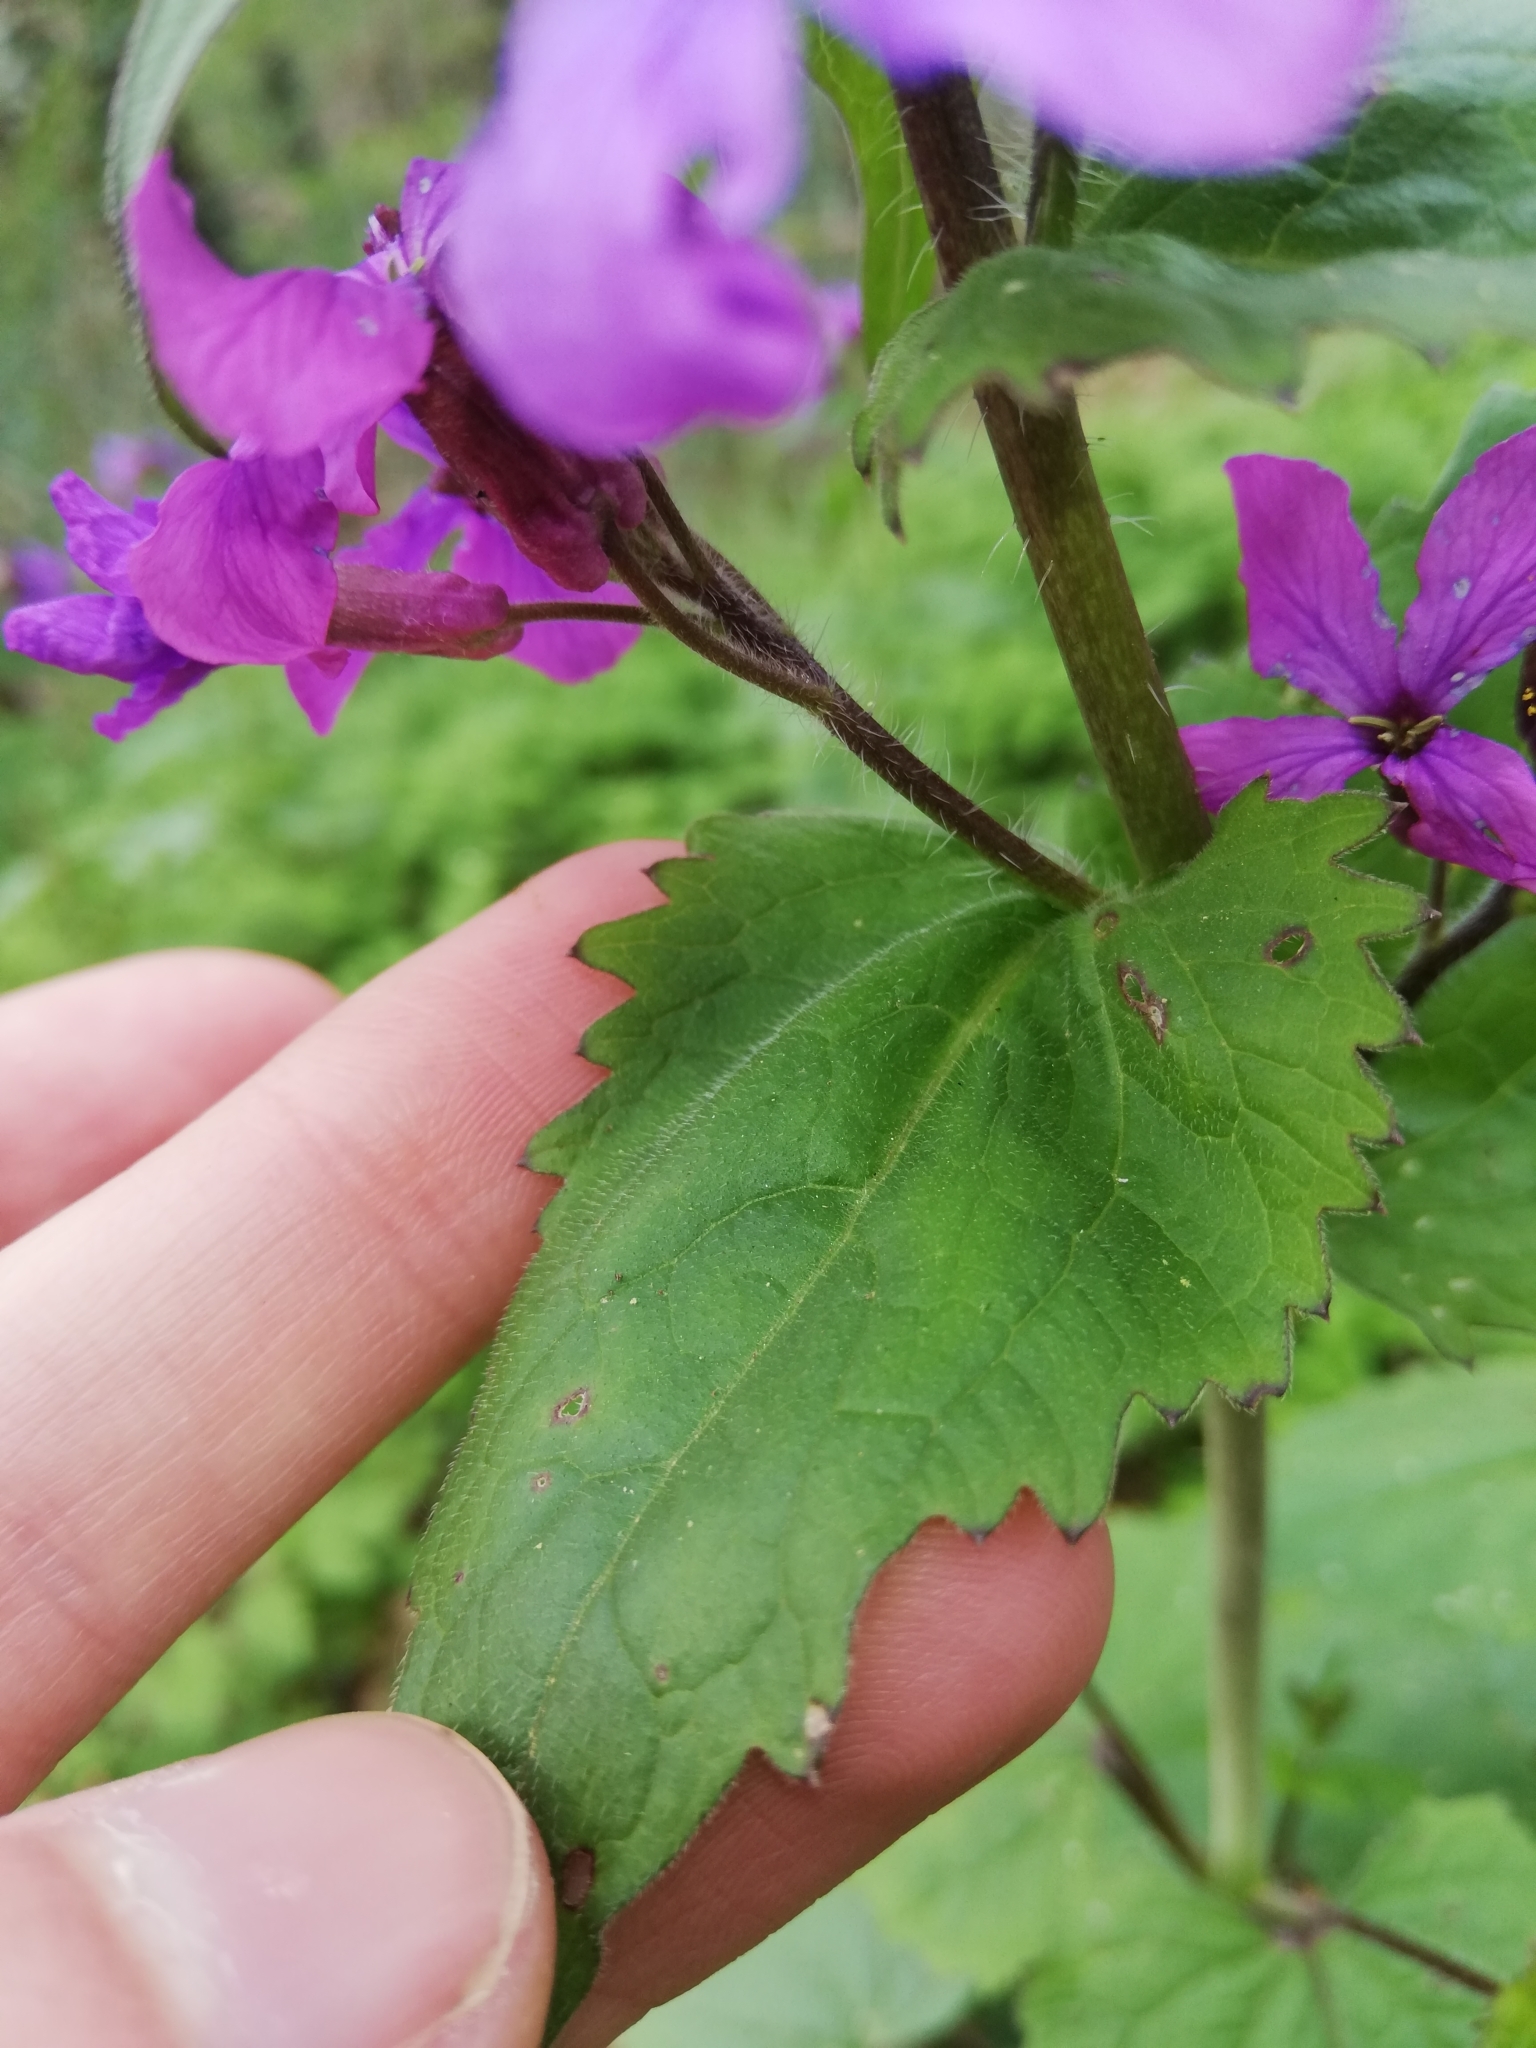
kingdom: Plantae
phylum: Tracheophyta
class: Magnoliopsida
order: Brassicales
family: Brassicaceae
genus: Lunaria
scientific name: Lunaria annua
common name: Honesty
